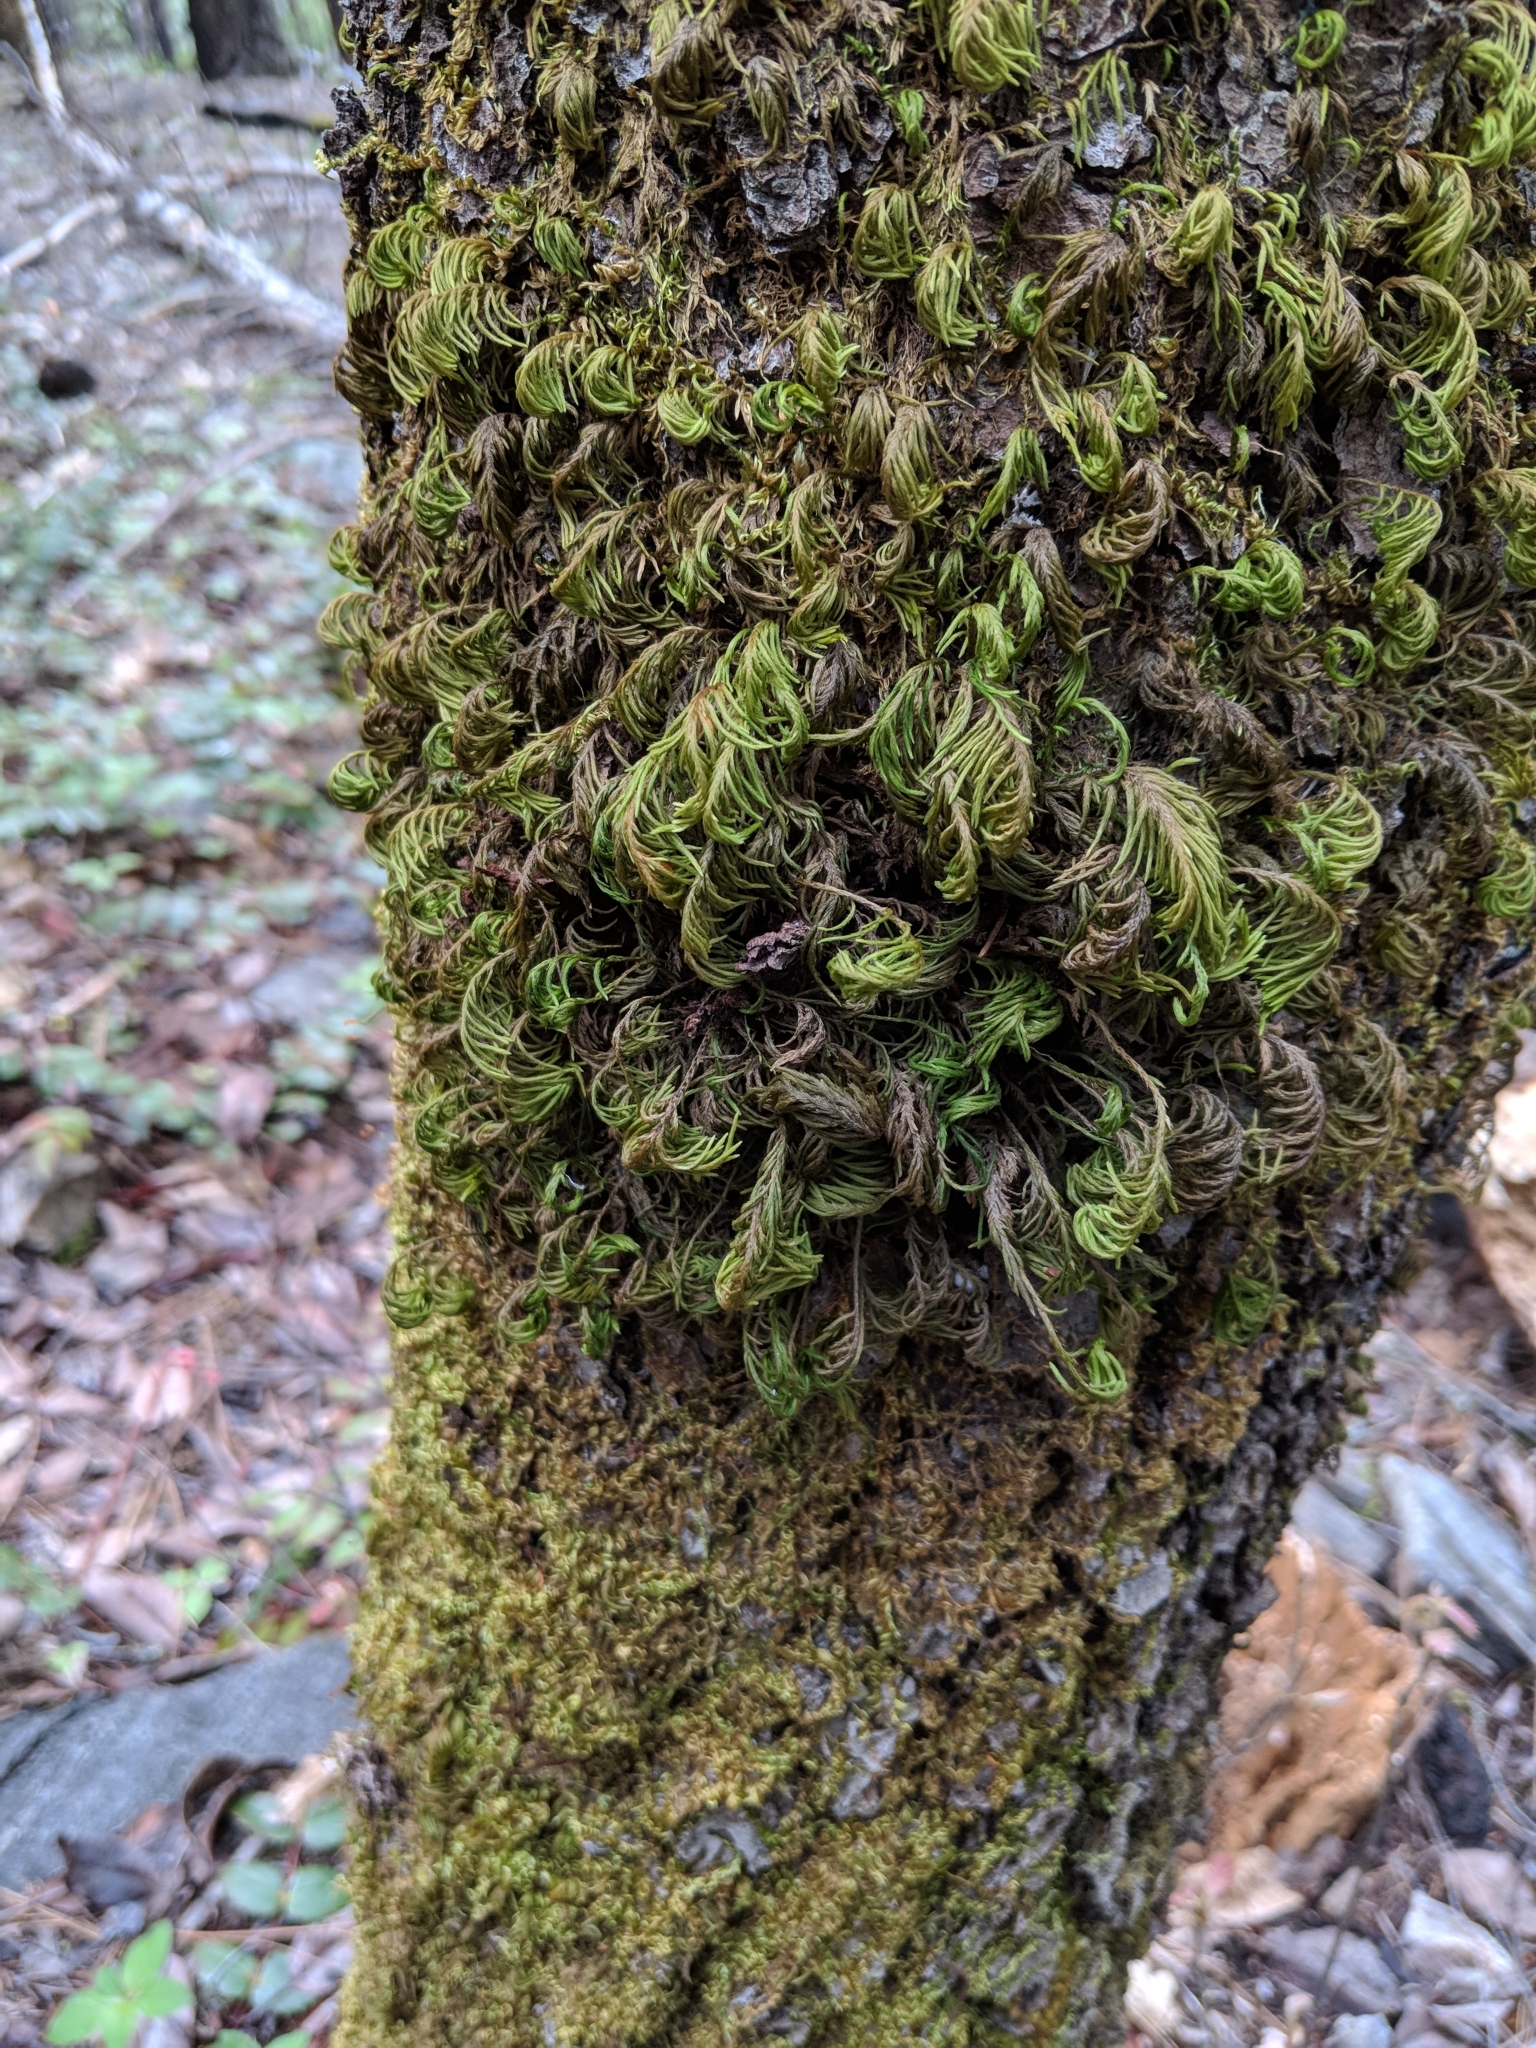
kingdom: Plantae
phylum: Bryophyta
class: Bryopsida
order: Hypnales
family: Cryphaeaceae
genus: Dendroalsia
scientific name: Dendroalsia abietina
